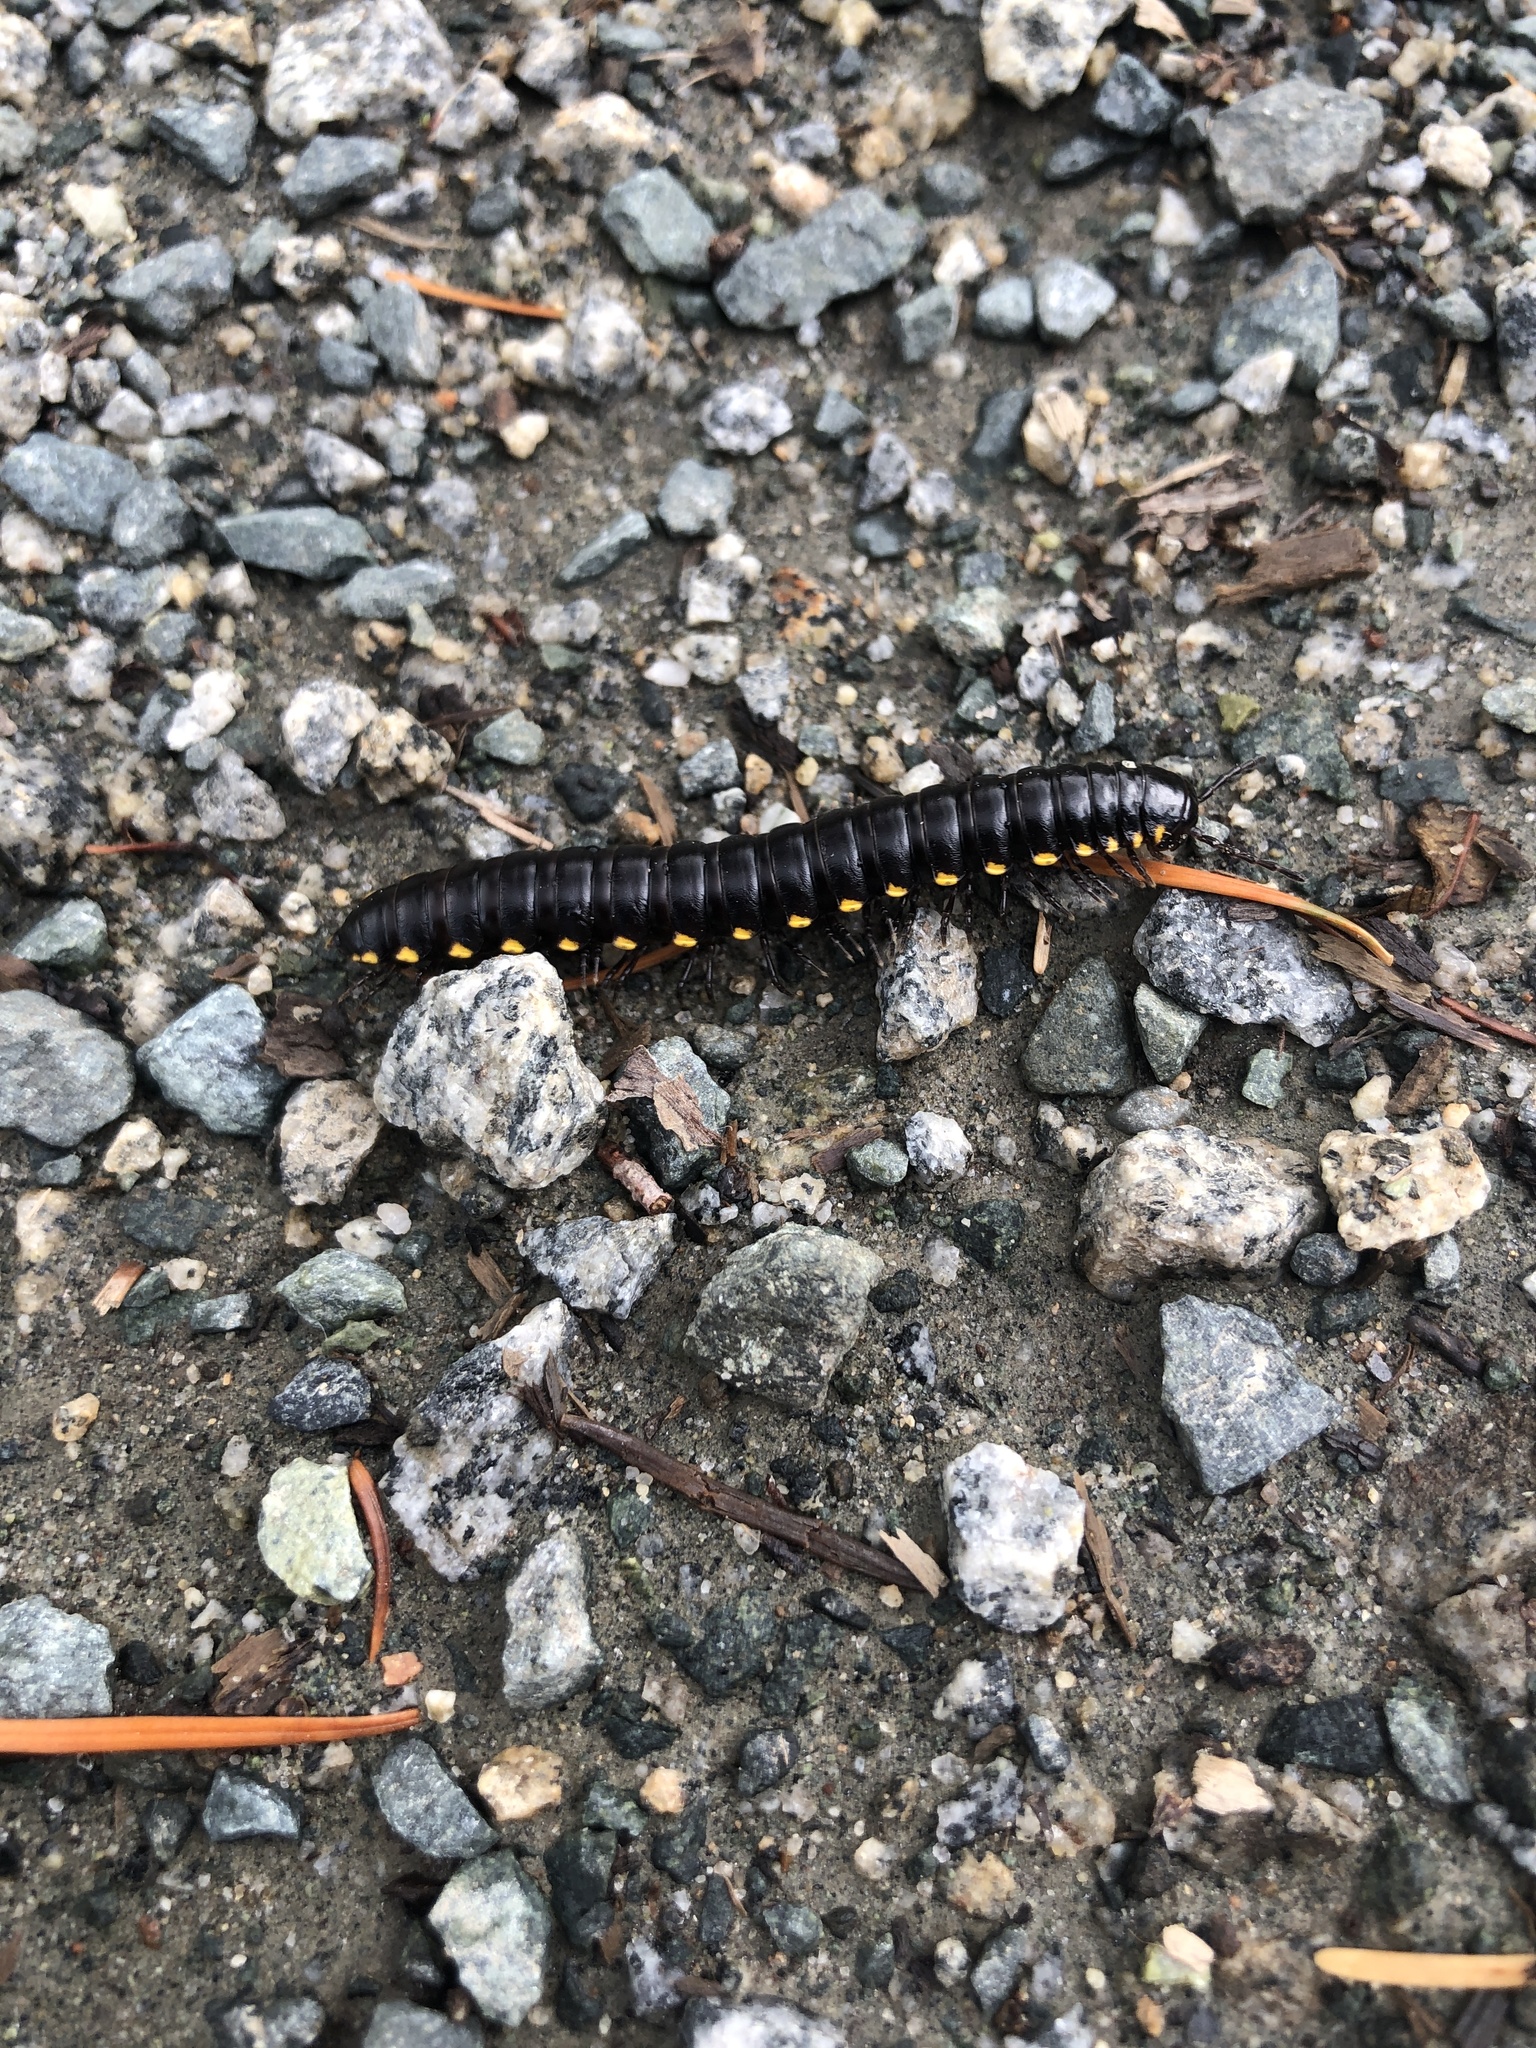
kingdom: Animalia
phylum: Arthropoda
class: Diplopoda
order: Polydesmida
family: Xystodesmidae
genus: Harpaphe
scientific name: Harpaphe haydeniana
